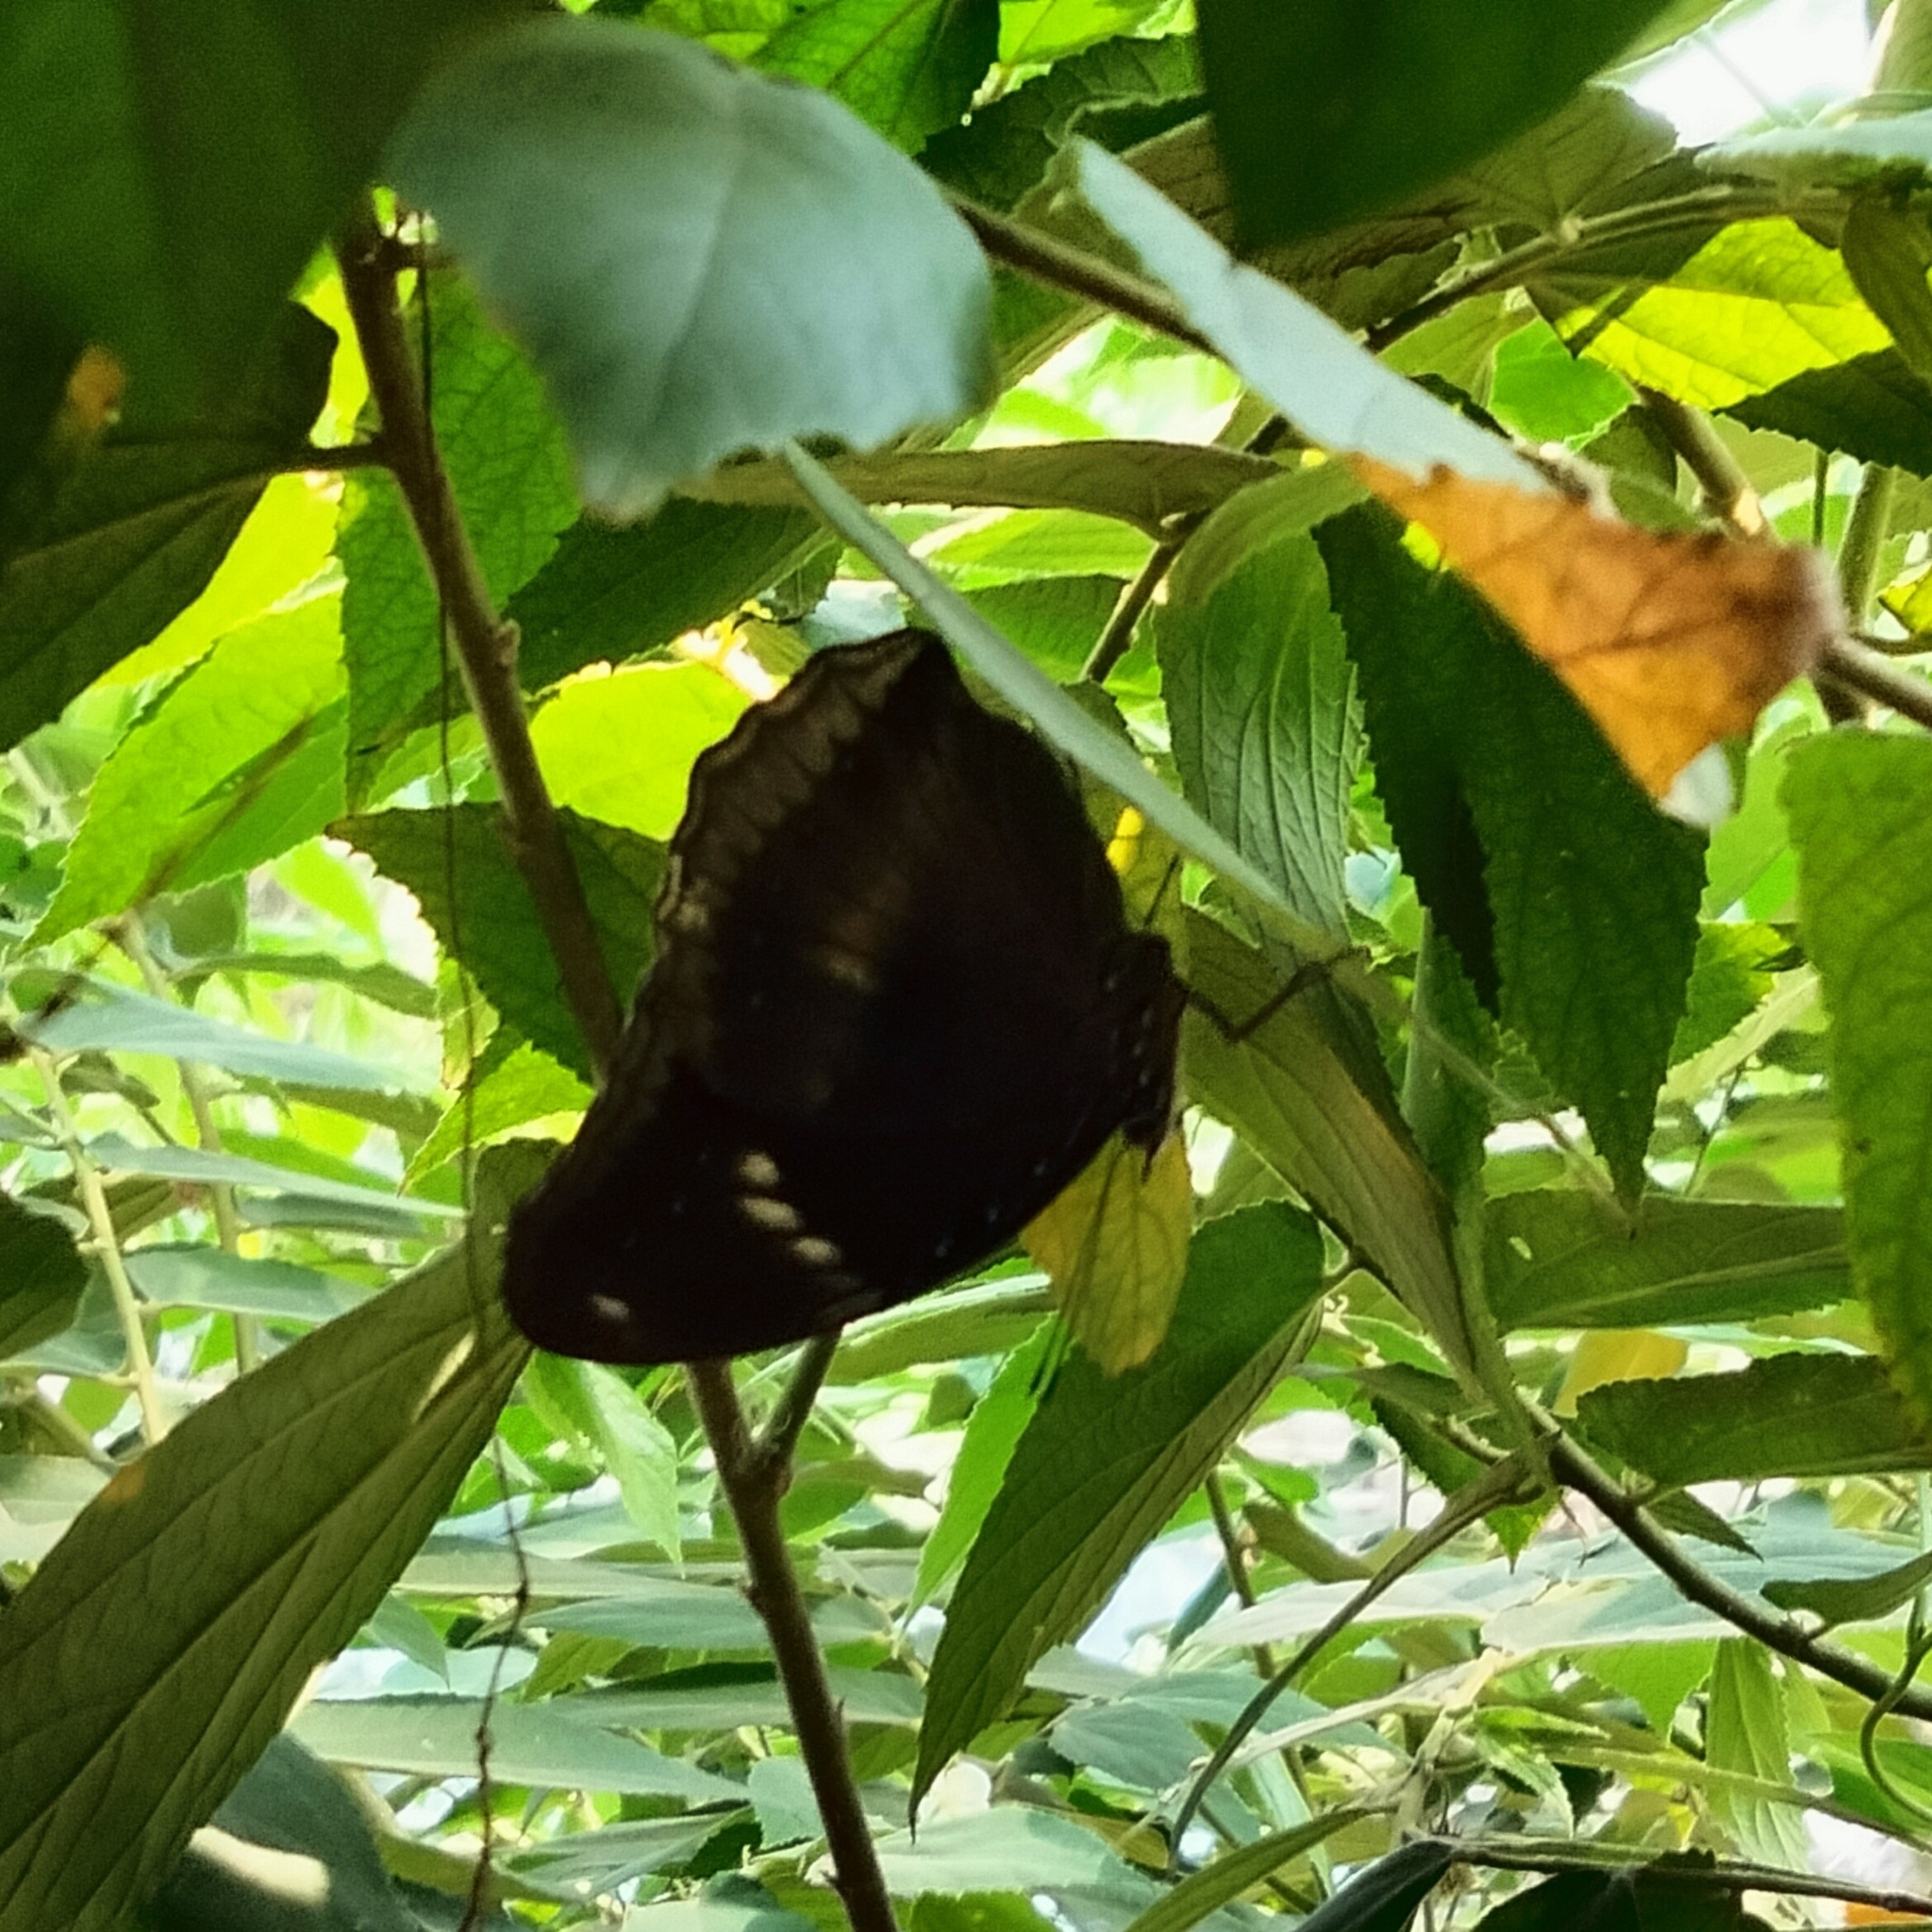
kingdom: Animalia
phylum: Arthropoda
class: Insecta
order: Lepidoptera
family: Nymphalidae
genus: Hypolimnas
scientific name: Hypolimnas bolina
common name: Great eggfly
